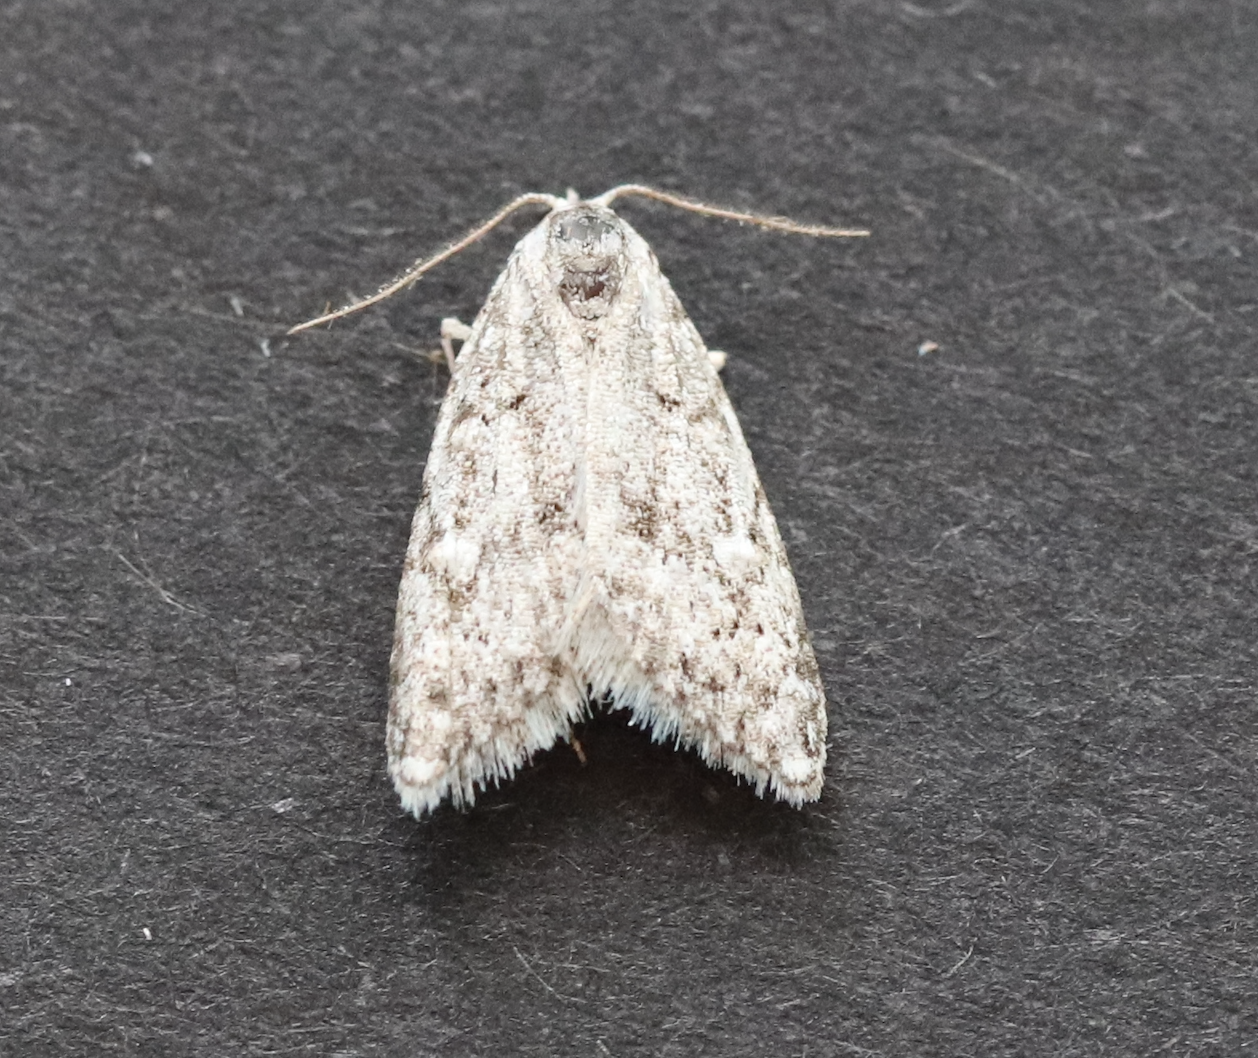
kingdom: Animalia
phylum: Arthropoda
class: Insecta
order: Lepidoptera
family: Nolidae
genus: Nola
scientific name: Nola cicatricalis
